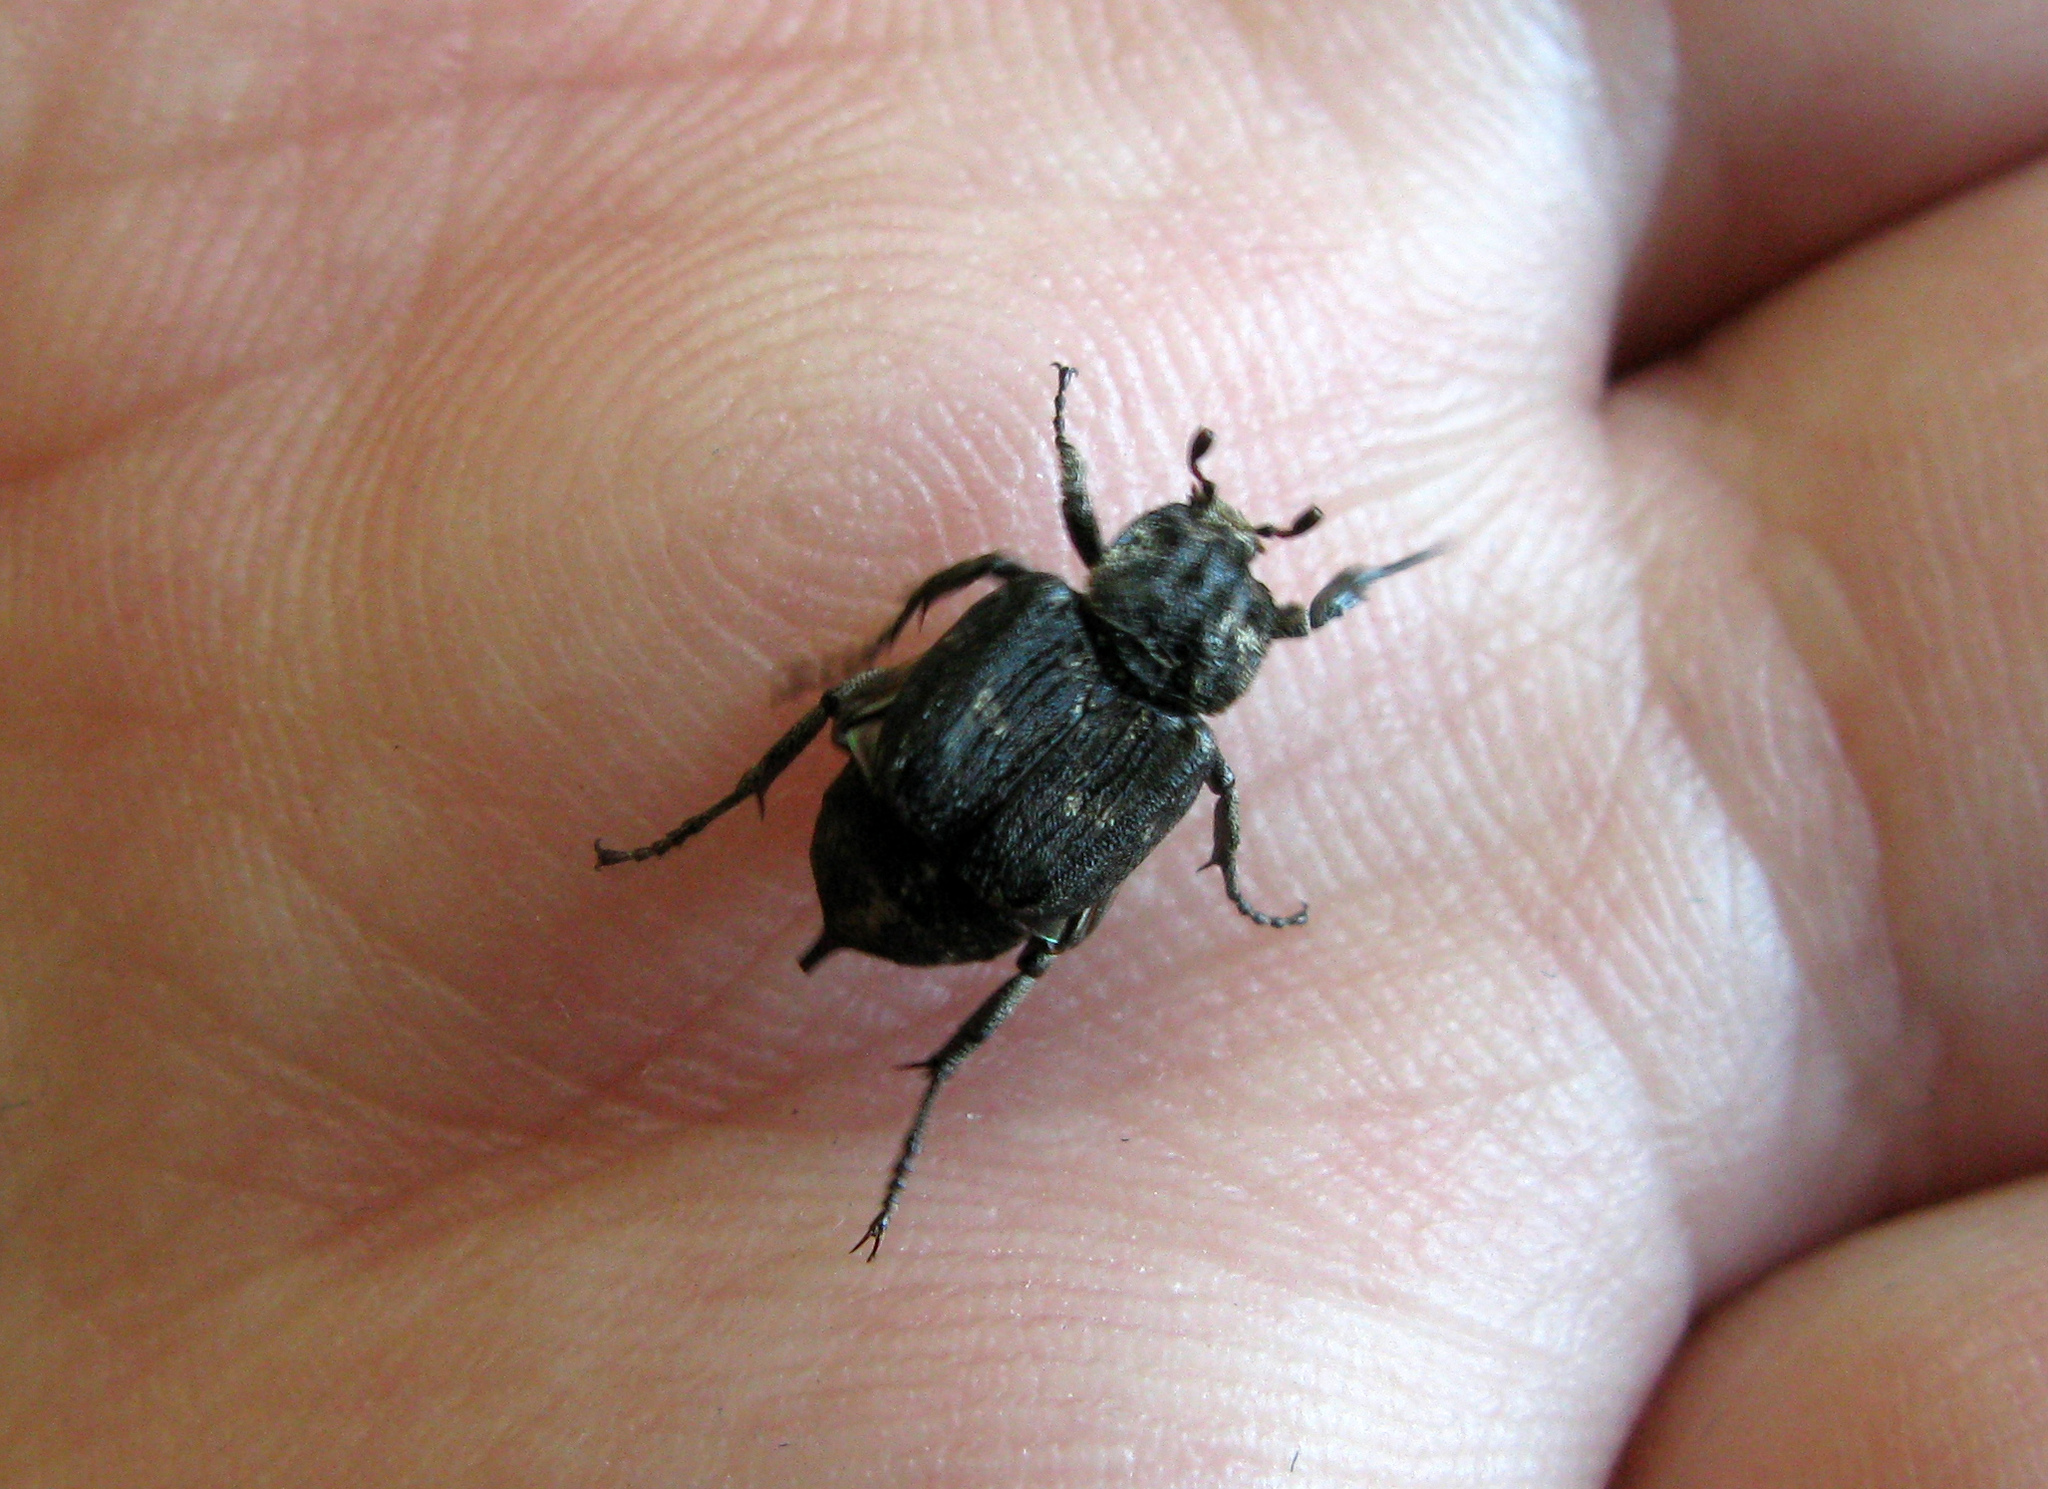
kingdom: Animalia
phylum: Arthropoda
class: Insecta
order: Coleoptera
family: Scarabaeidae
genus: Valgus
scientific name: Valgus hemipterus
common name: Bug flower chafer
